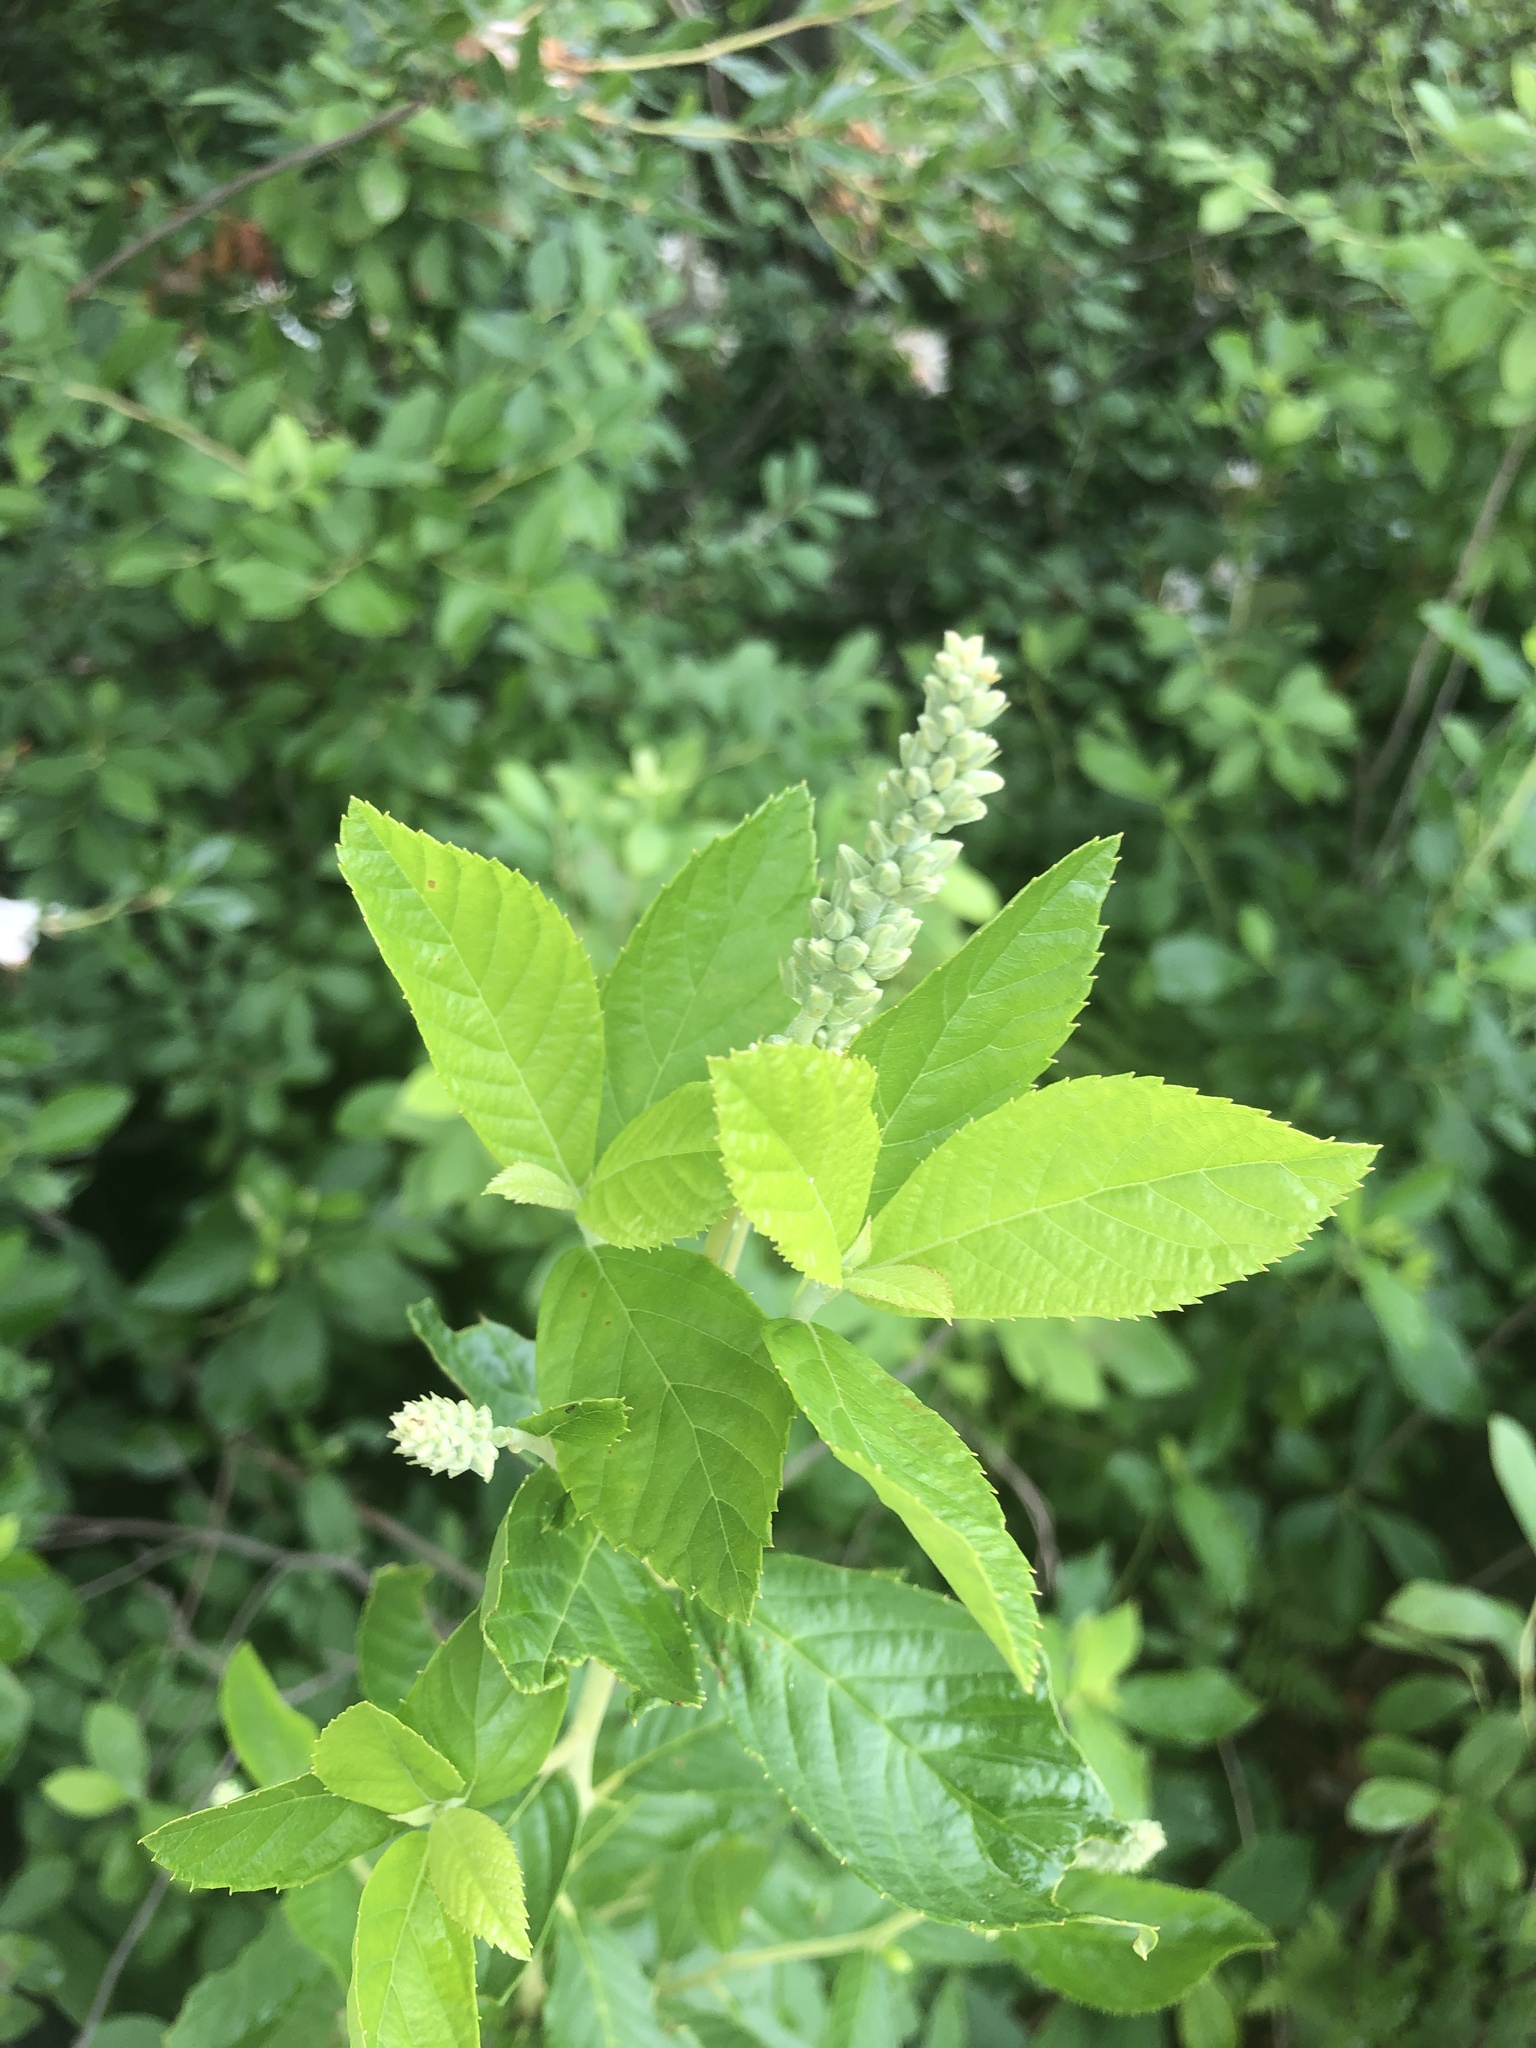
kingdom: Plantae
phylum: Tracheophyta
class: Magnoliopsida
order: Ericales
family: Clethraceae
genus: Clethra
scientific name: Clethra alnifolia
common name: Sweet pepperbush
